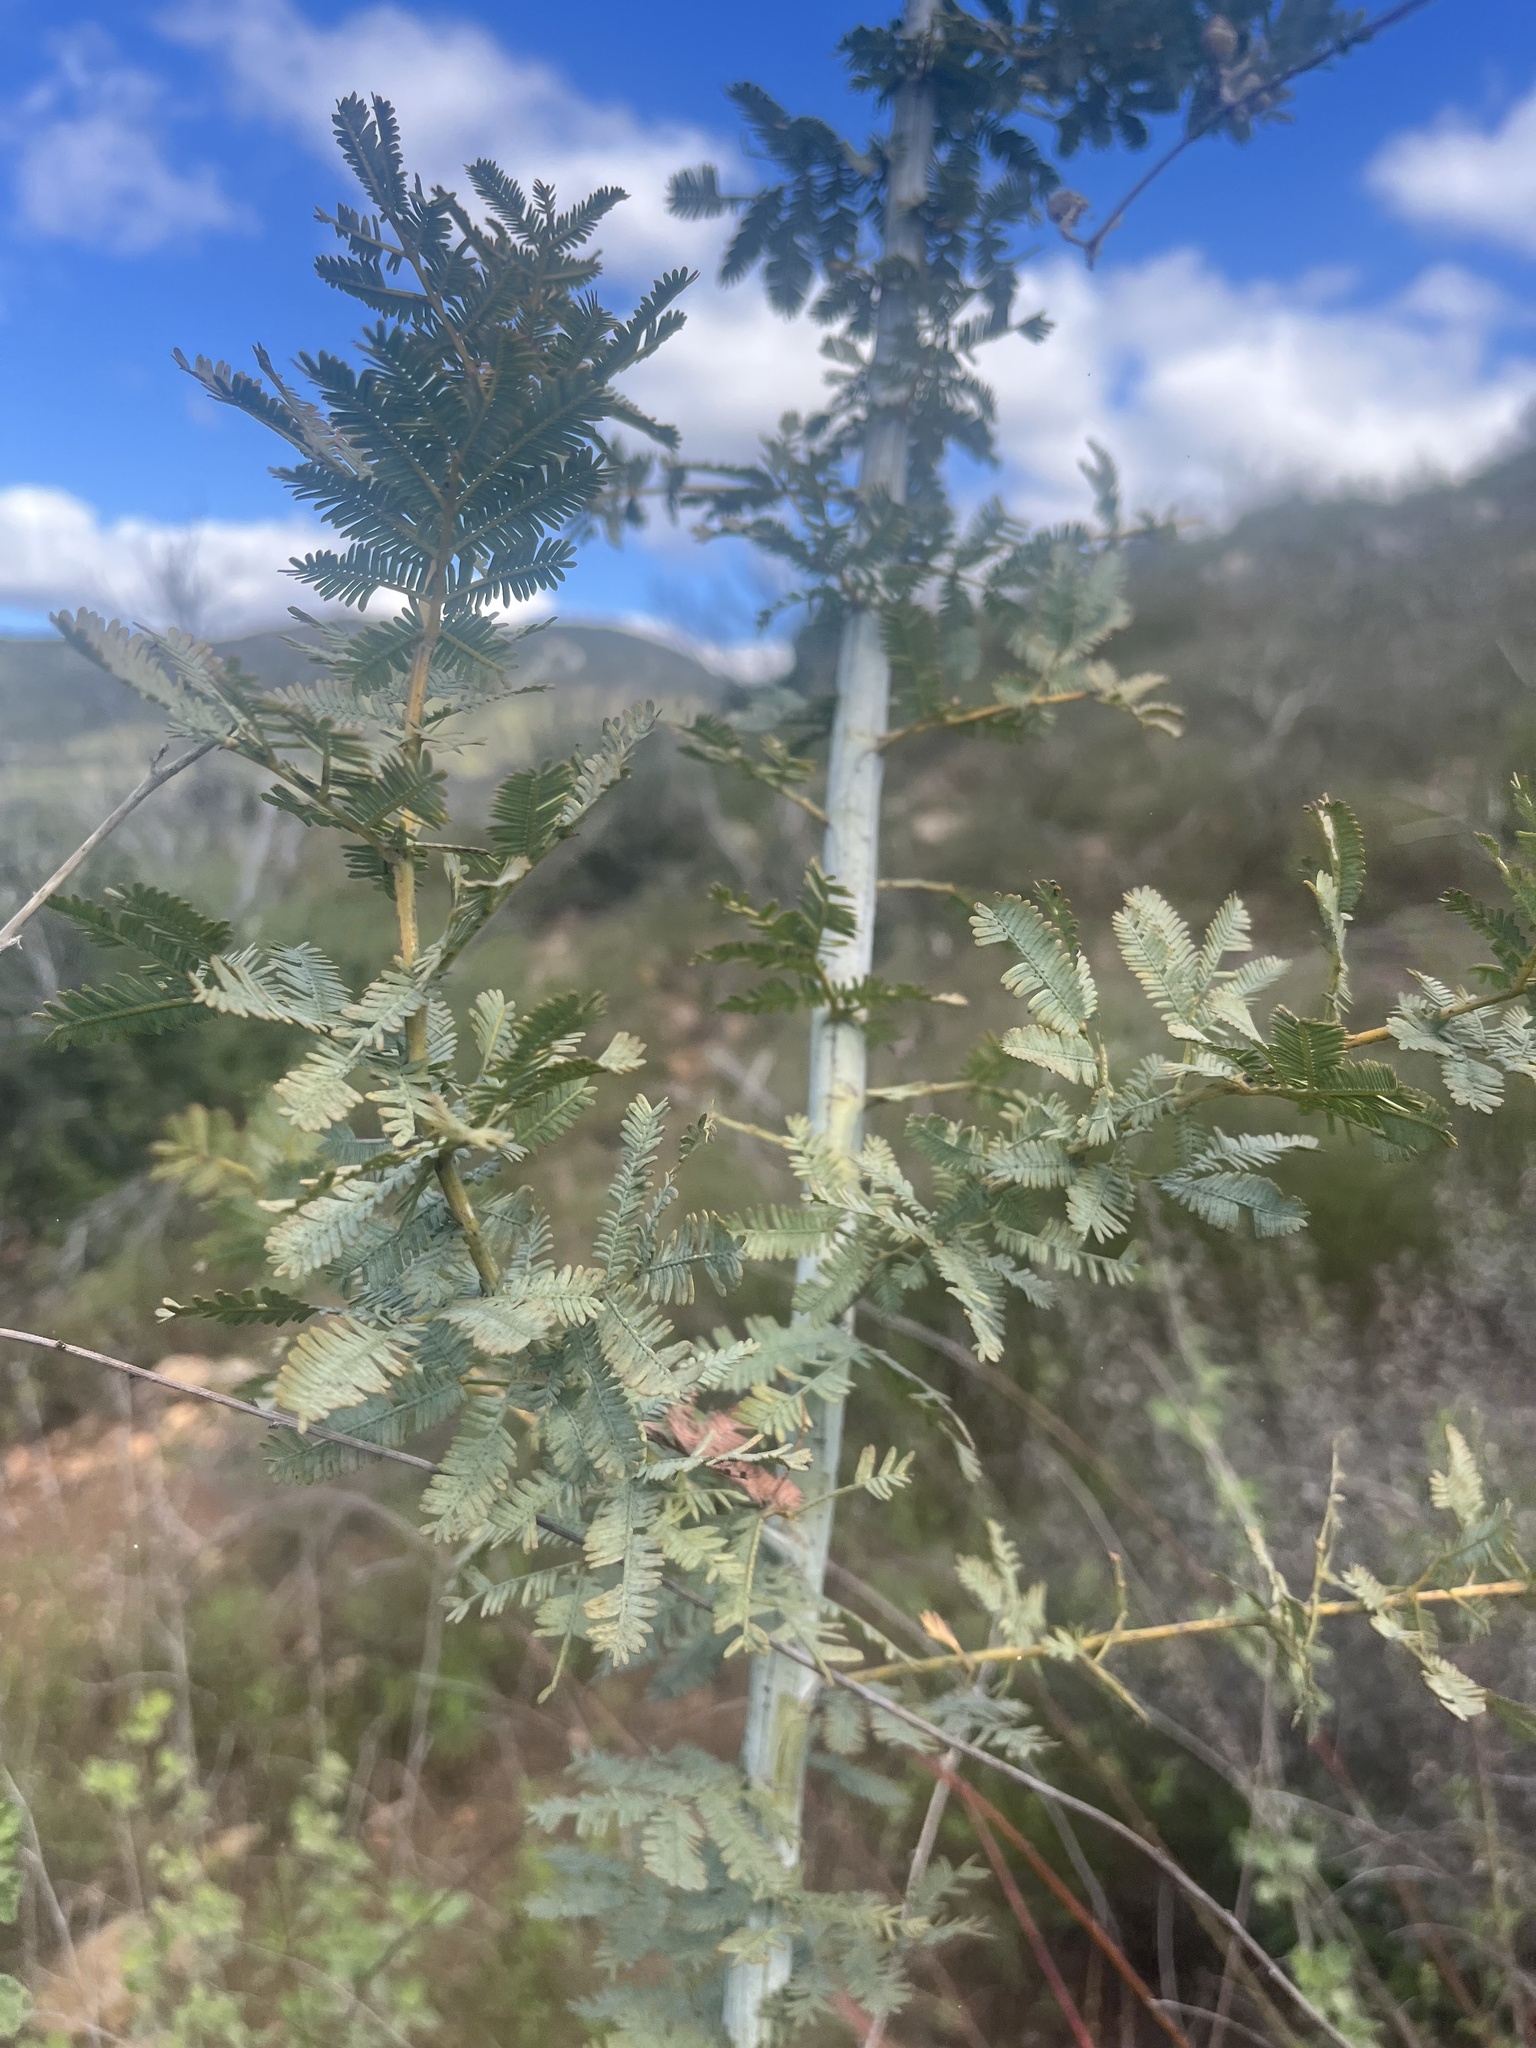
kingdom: Plantae
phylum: Tracheophyta
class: Magnoliopsida
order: Fabales
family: Fabaceae
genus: Acacia
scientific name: Acacia baileyana
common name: Cootamundra wattle
